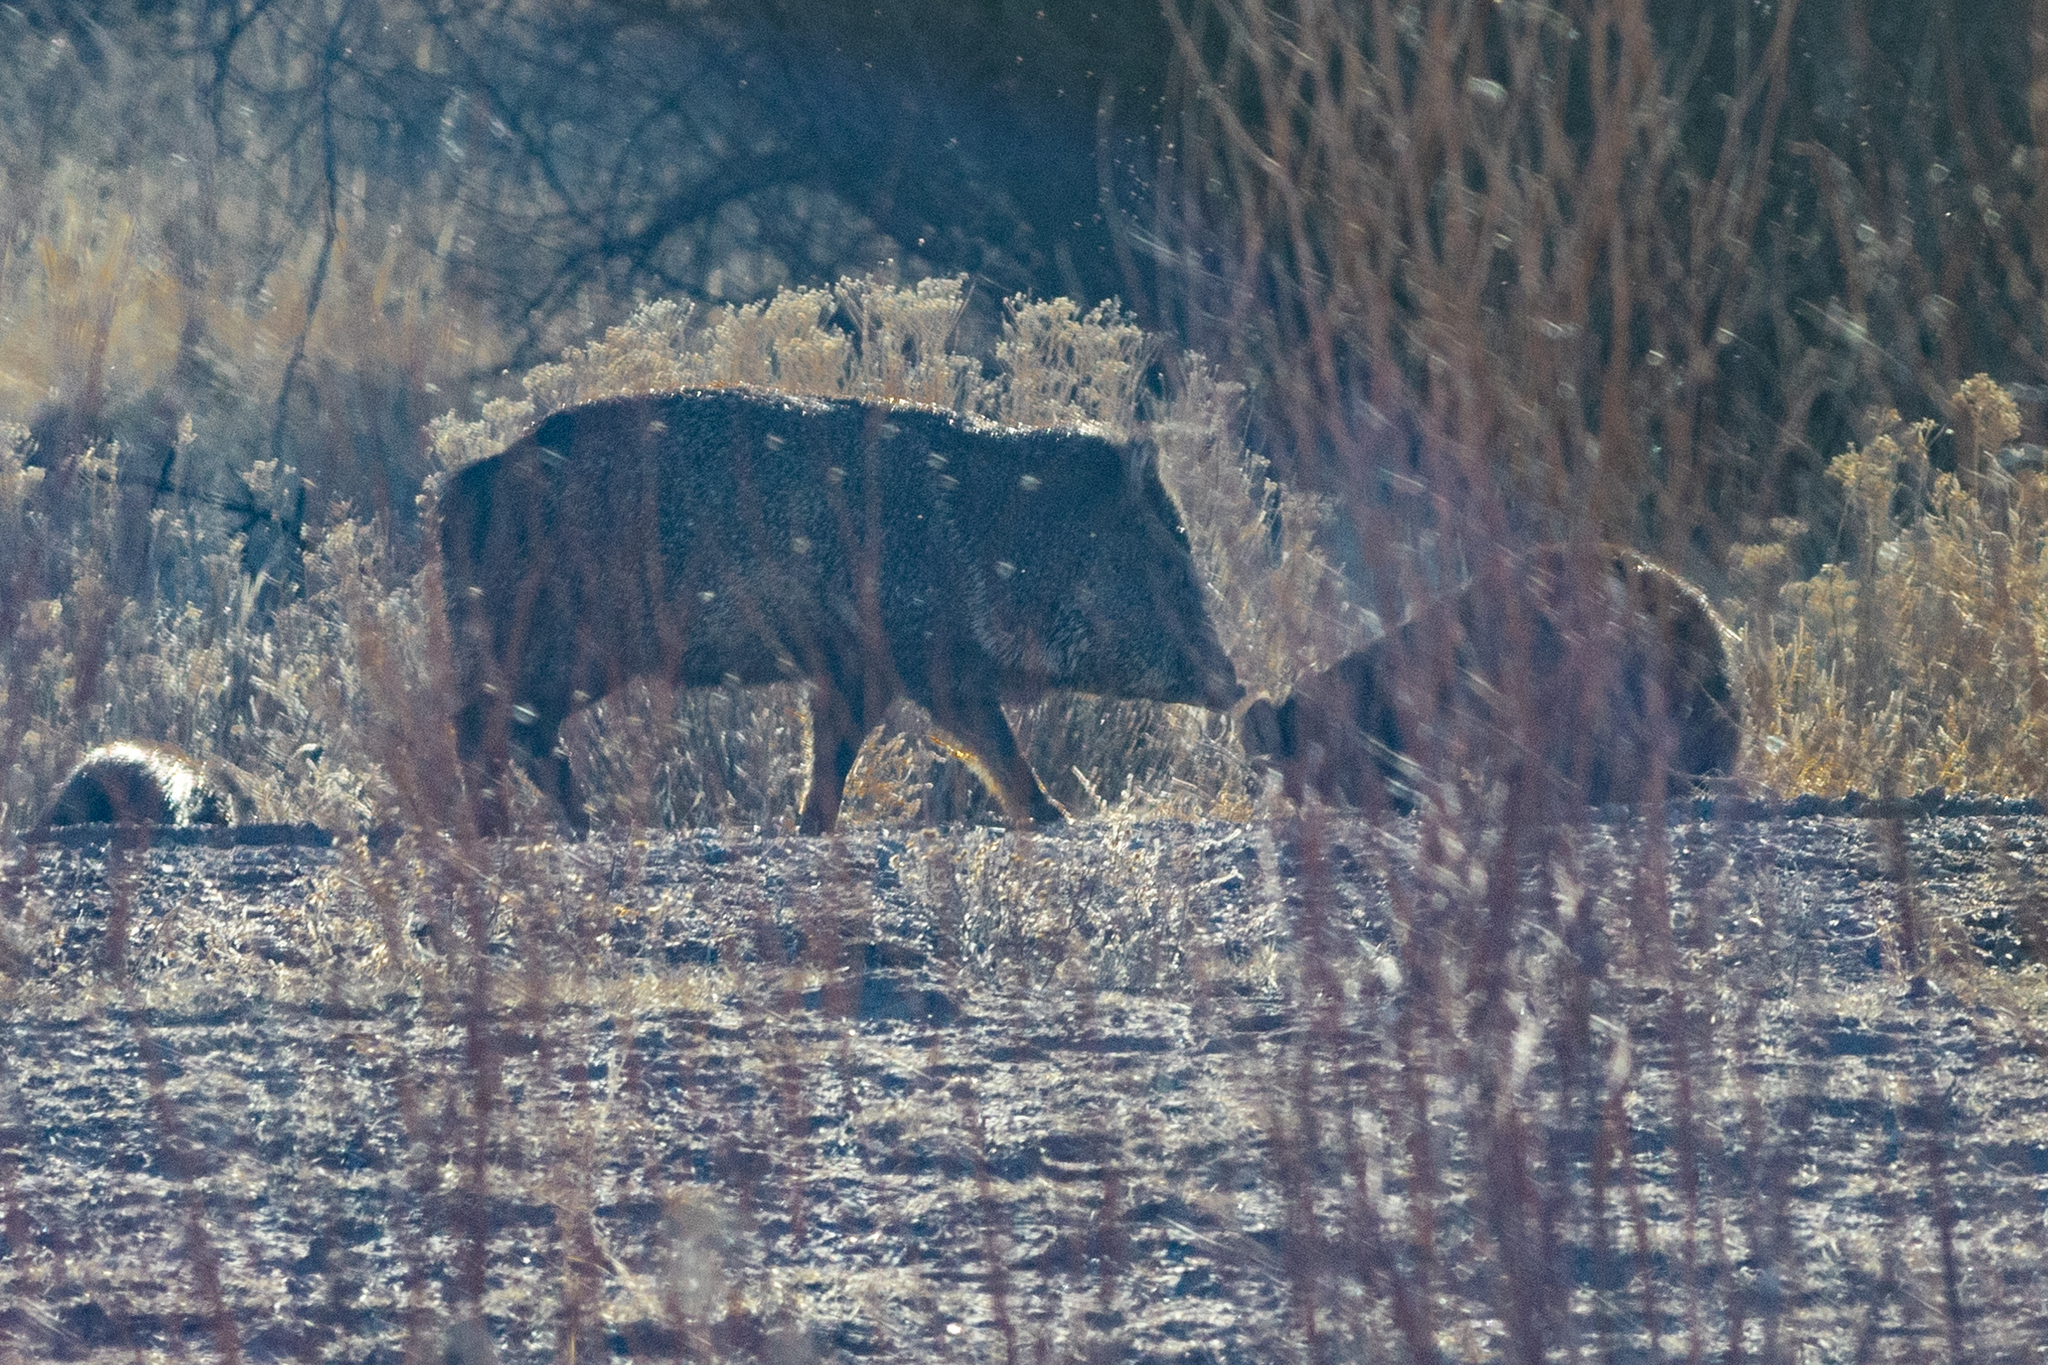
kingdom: Animalia
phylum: Chordata
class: Mammalia
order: Artiodactyla
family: Tayassuidae
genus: Pecari
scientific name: Pecari tajacu
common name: Collared peccary
